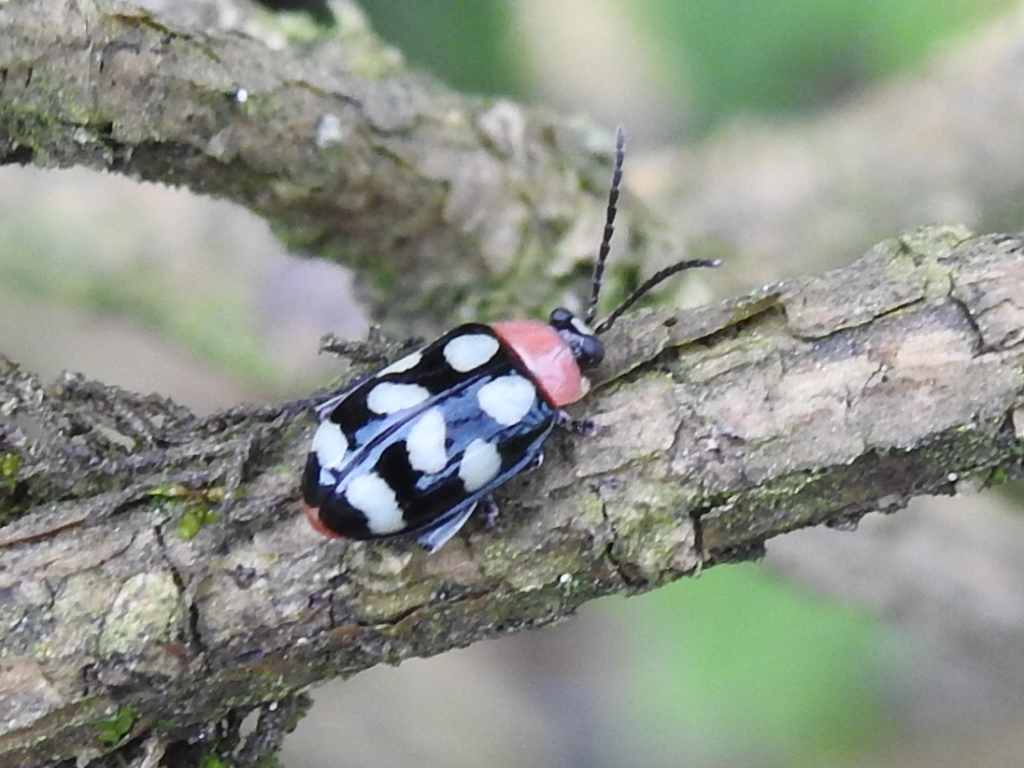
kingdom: Animalia
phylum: Arthropoda
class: Insecta
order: Coleoptera
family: Chrysomelidae
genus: Omophoita
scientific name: Omophoita aequinoctialis
